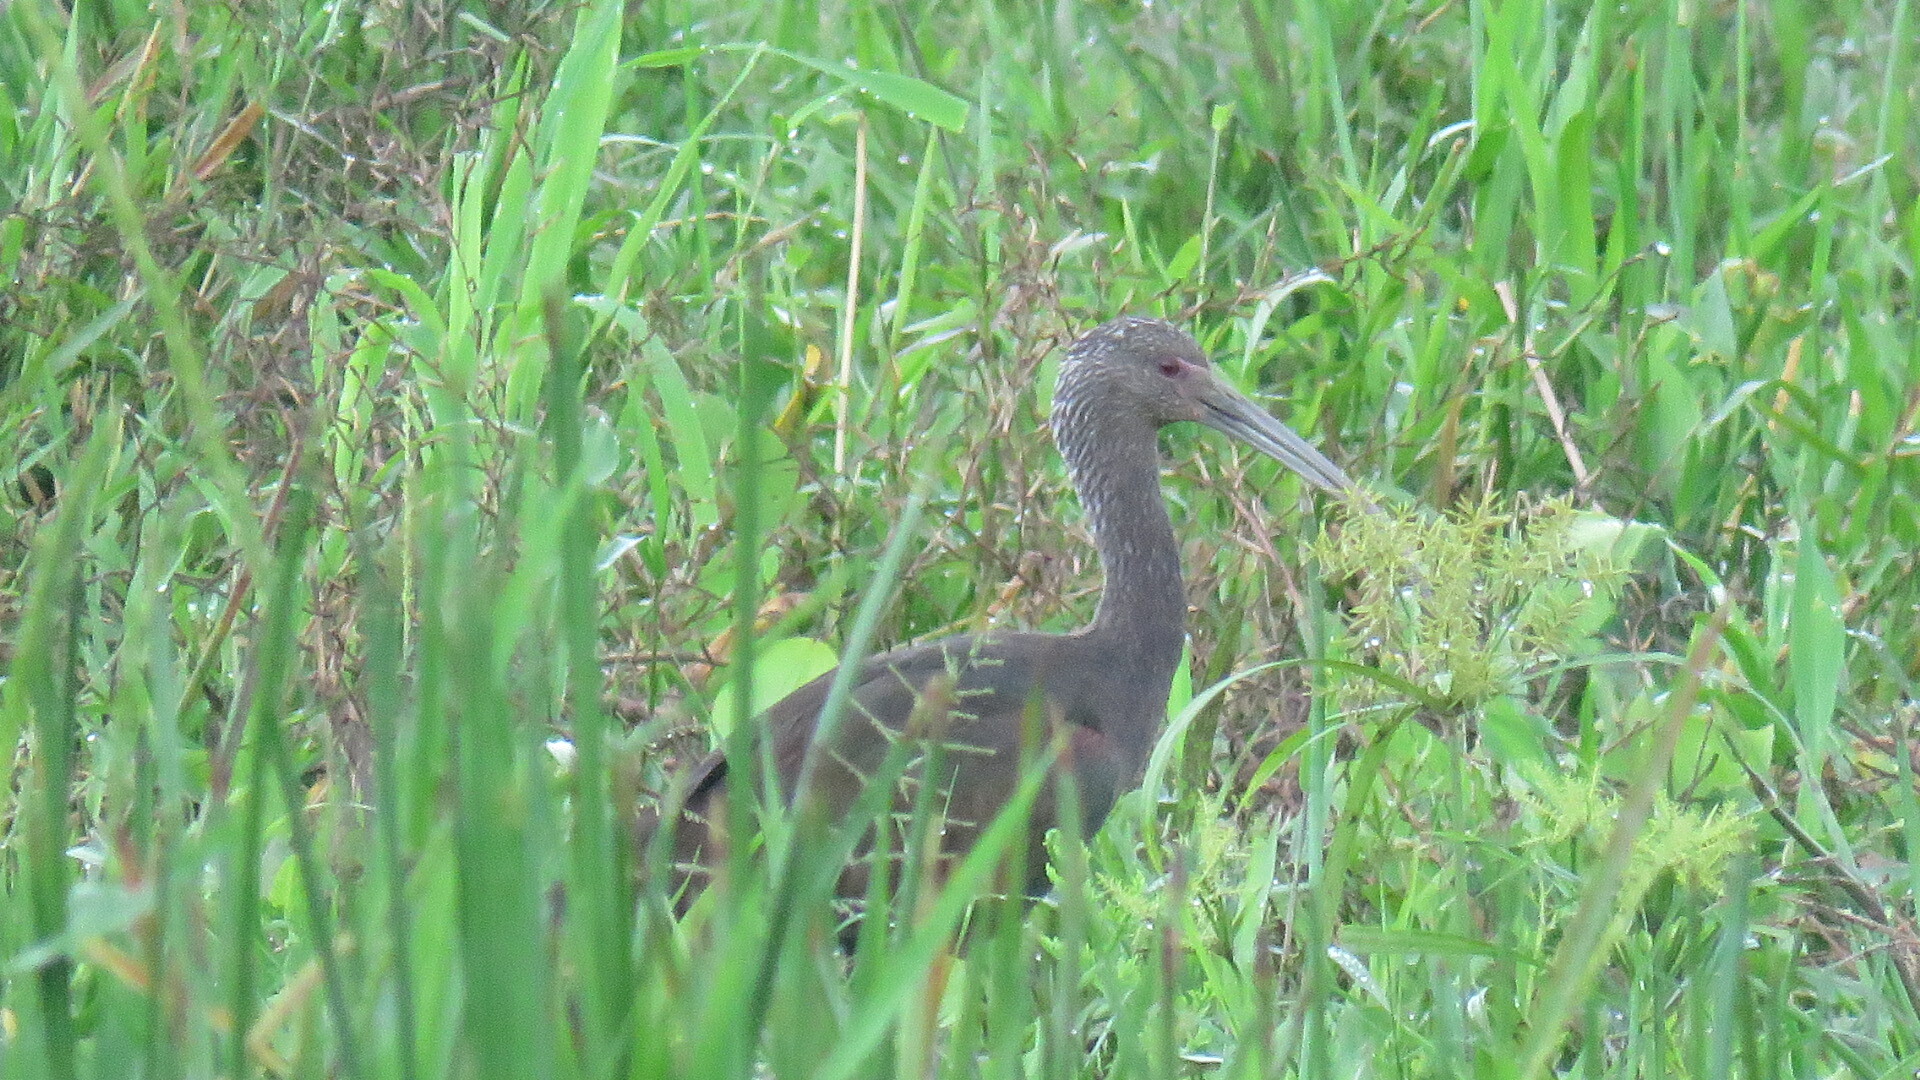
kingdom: Animalia
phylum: Chordata
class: Aves
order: Pelecaniformes
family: Threskiornithidae
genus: Plegadis
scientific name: Plegadis chihi
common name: White-faced ibis
